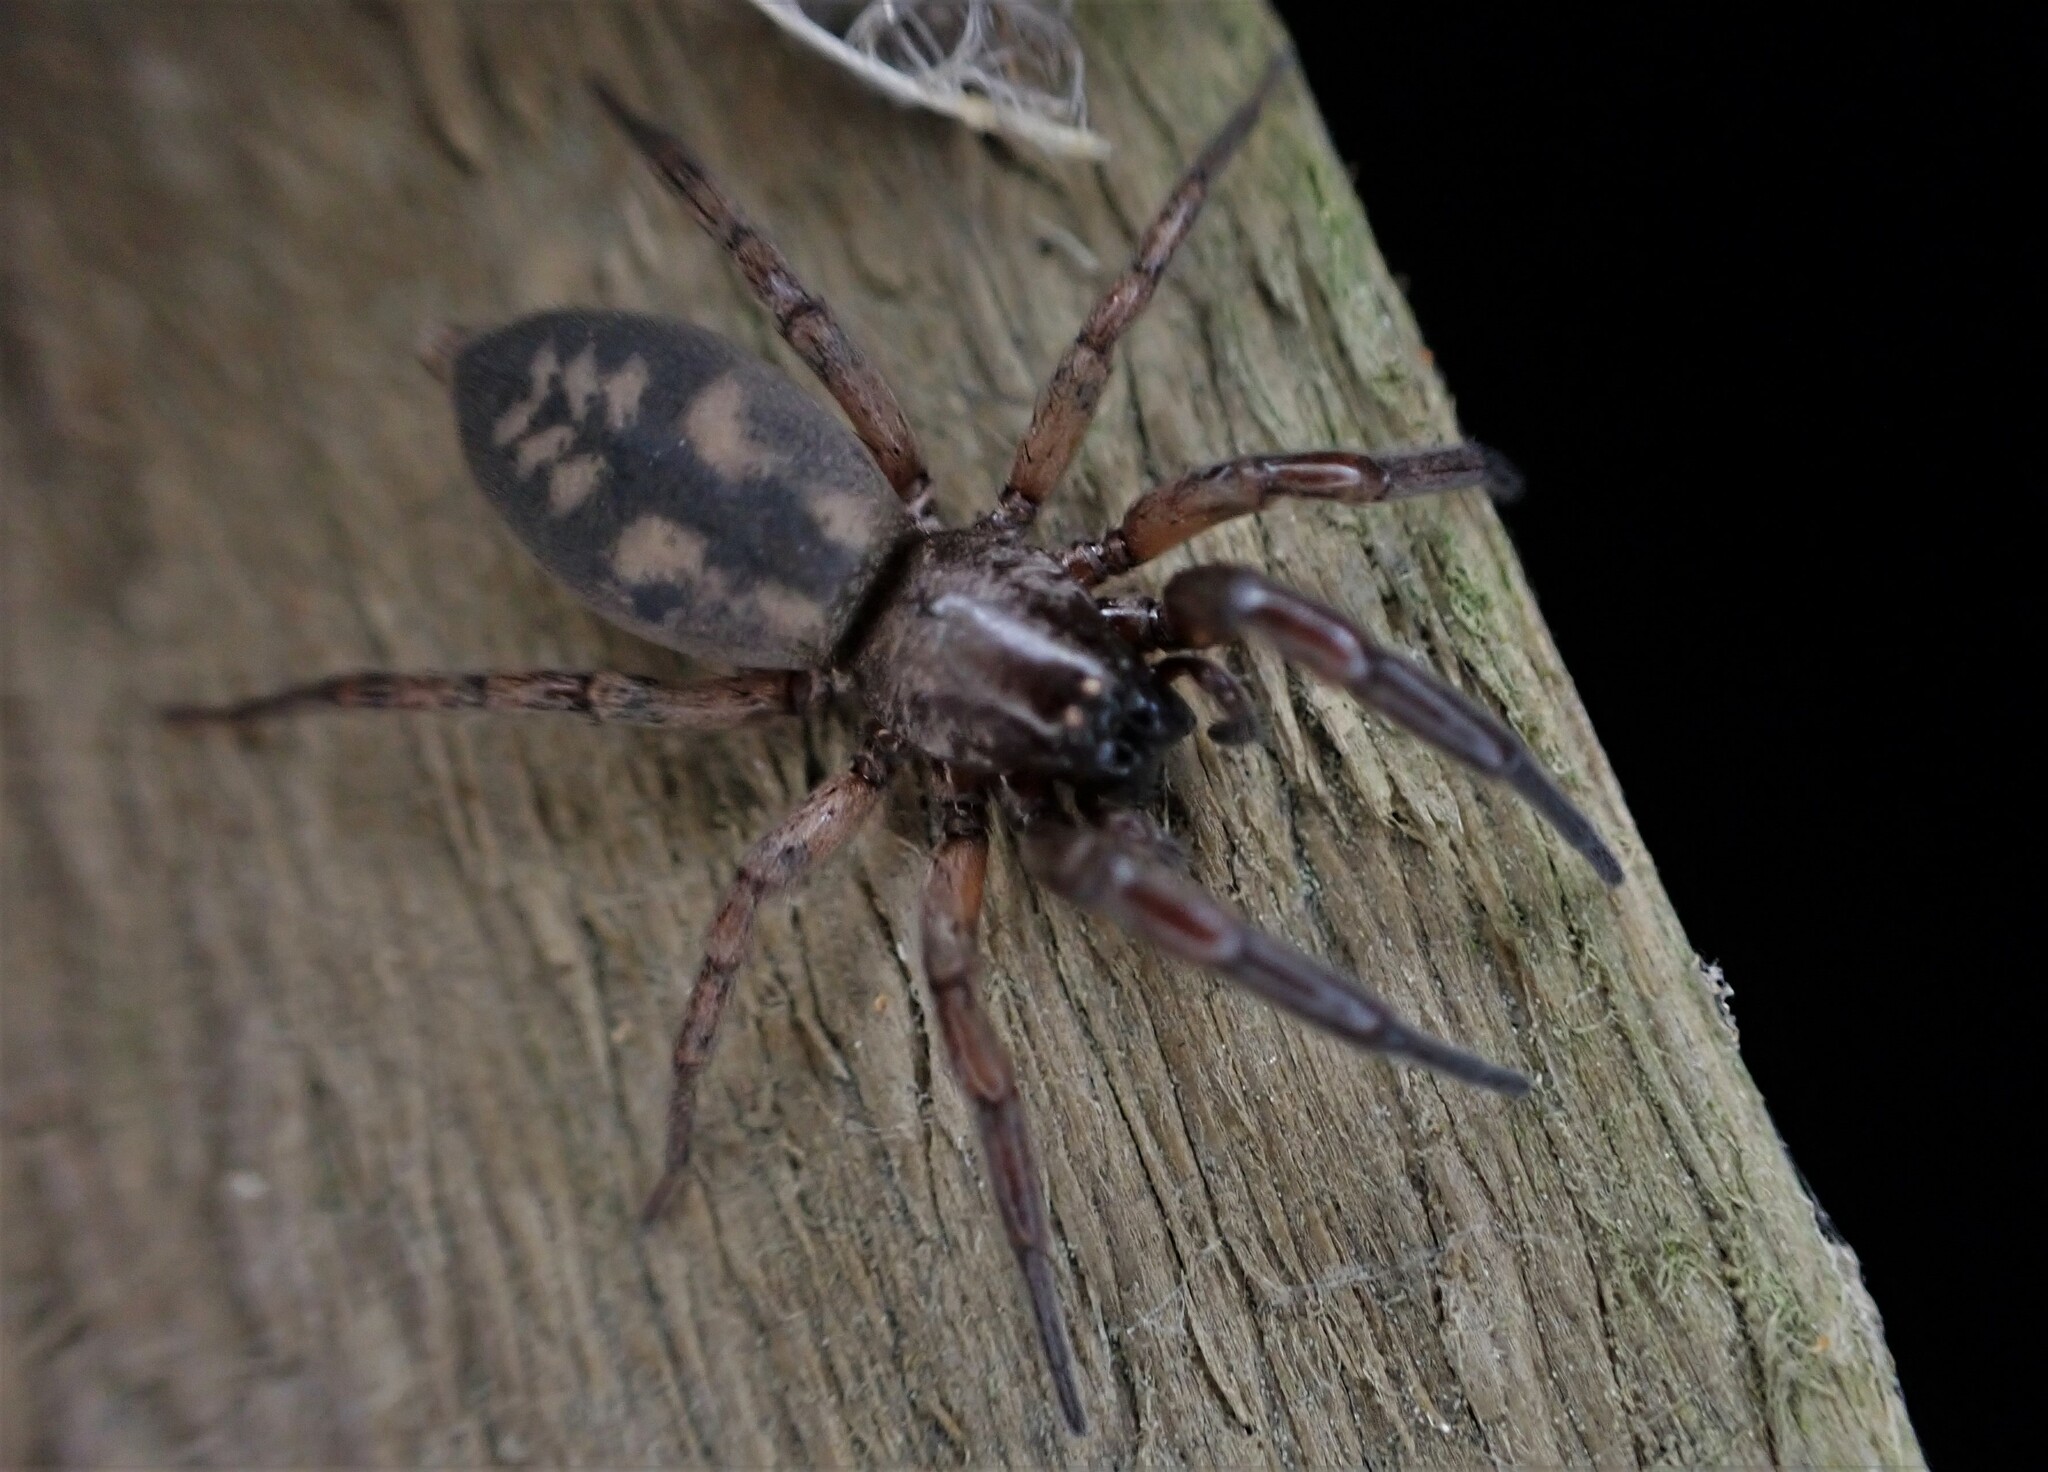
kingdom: Animalia
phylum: Arthropoda
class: Arachnida
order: Araneae
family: Gnaphosidae
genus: Intruda
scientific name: Intruda signata
